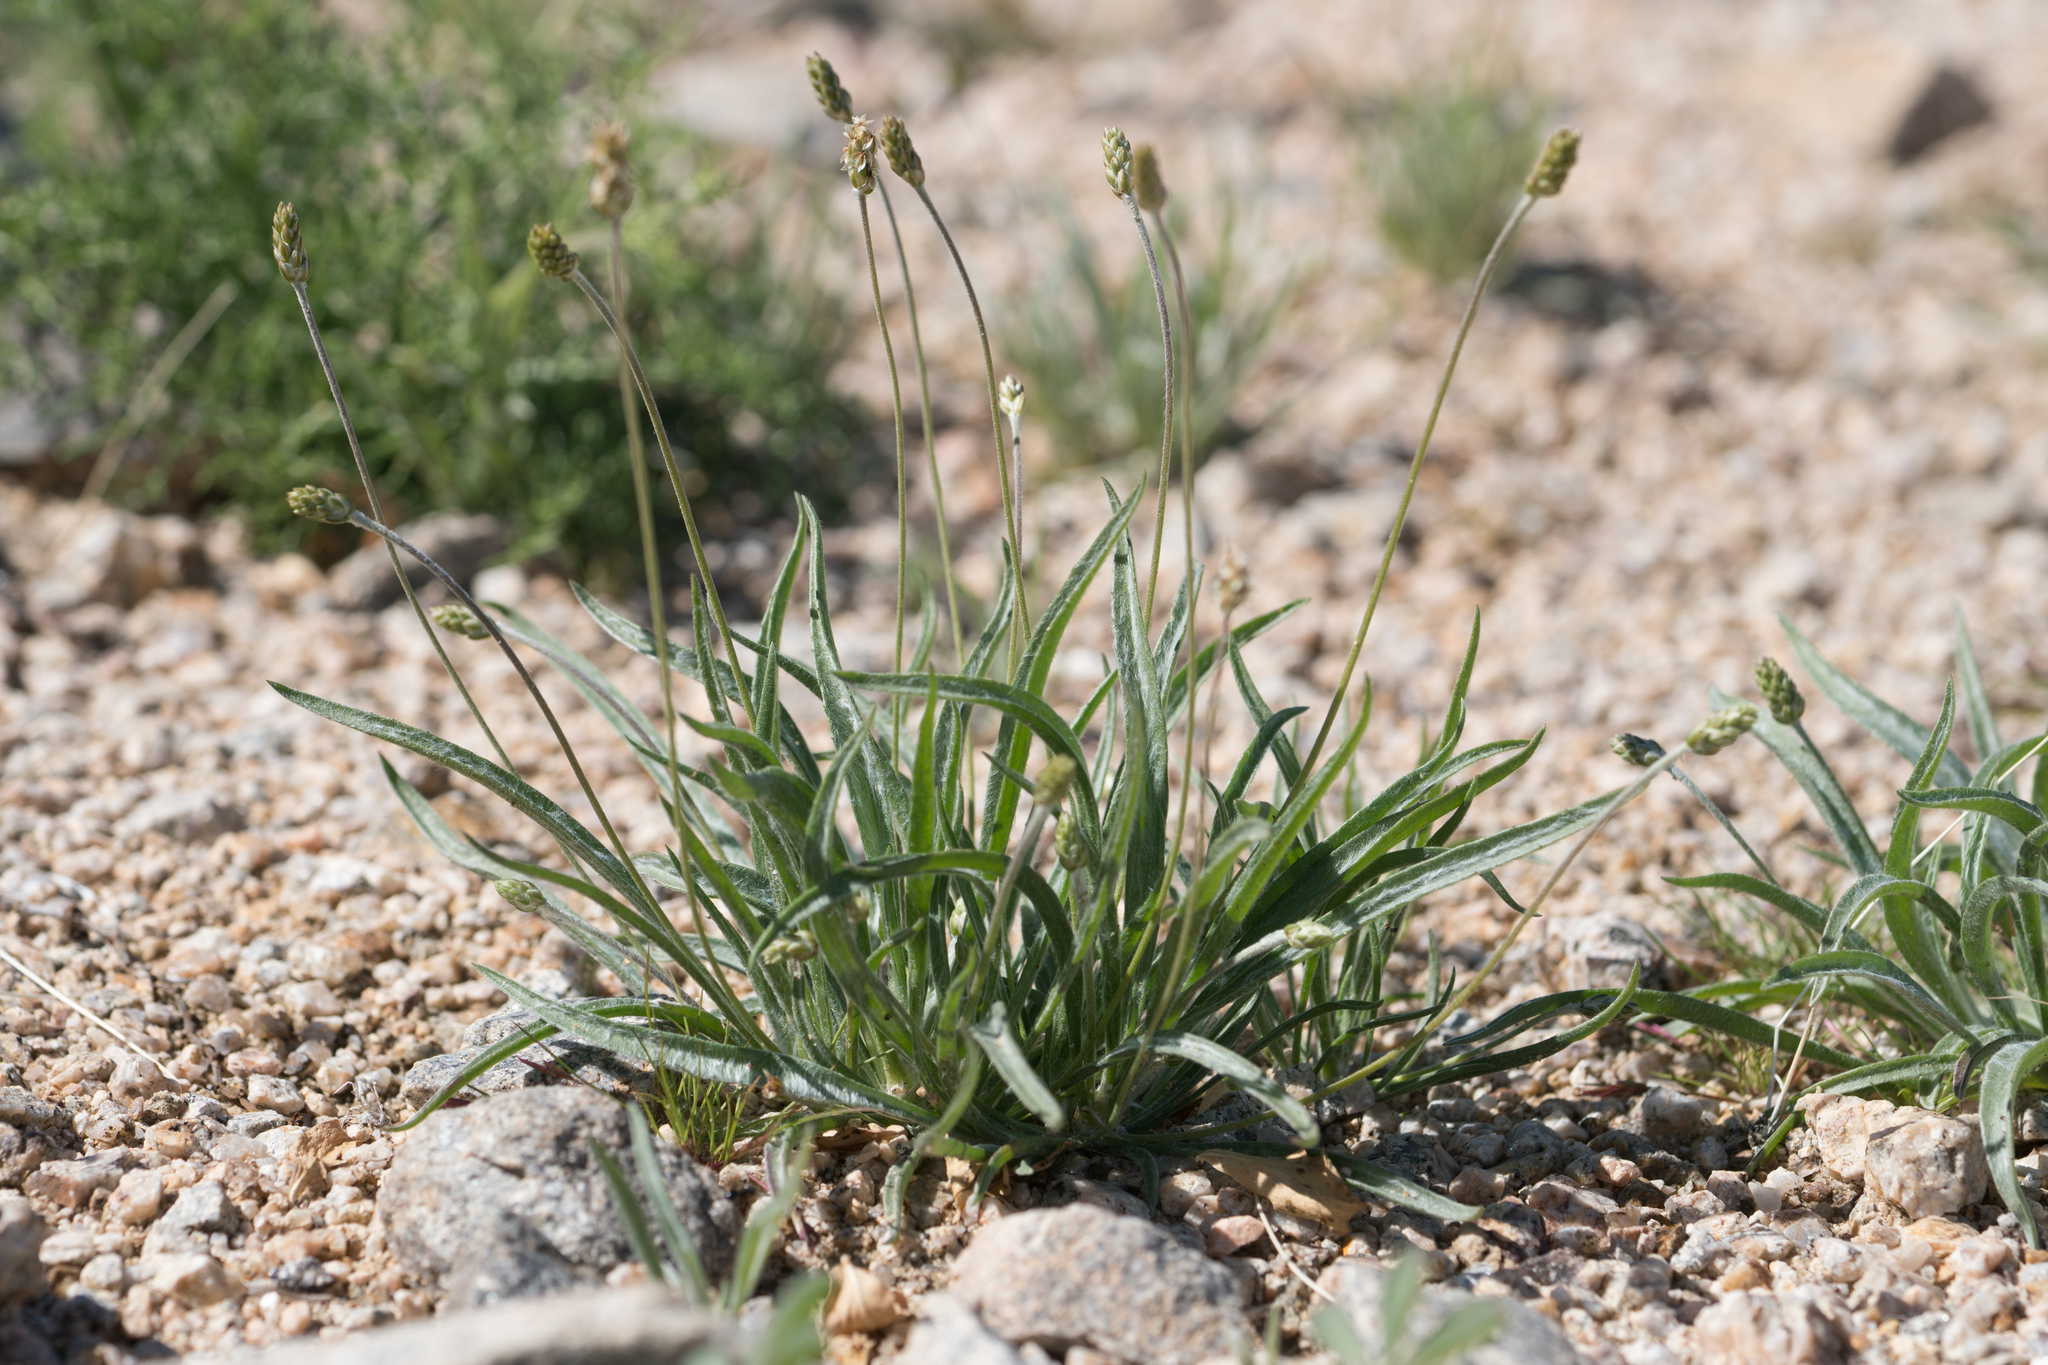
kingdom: Plantae
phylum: Tracheophyta
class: Magnoliopsida
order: Lamiales
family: Plantaginaceae
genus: Plantago
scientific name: Plantago ovata
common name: Blond plantain
